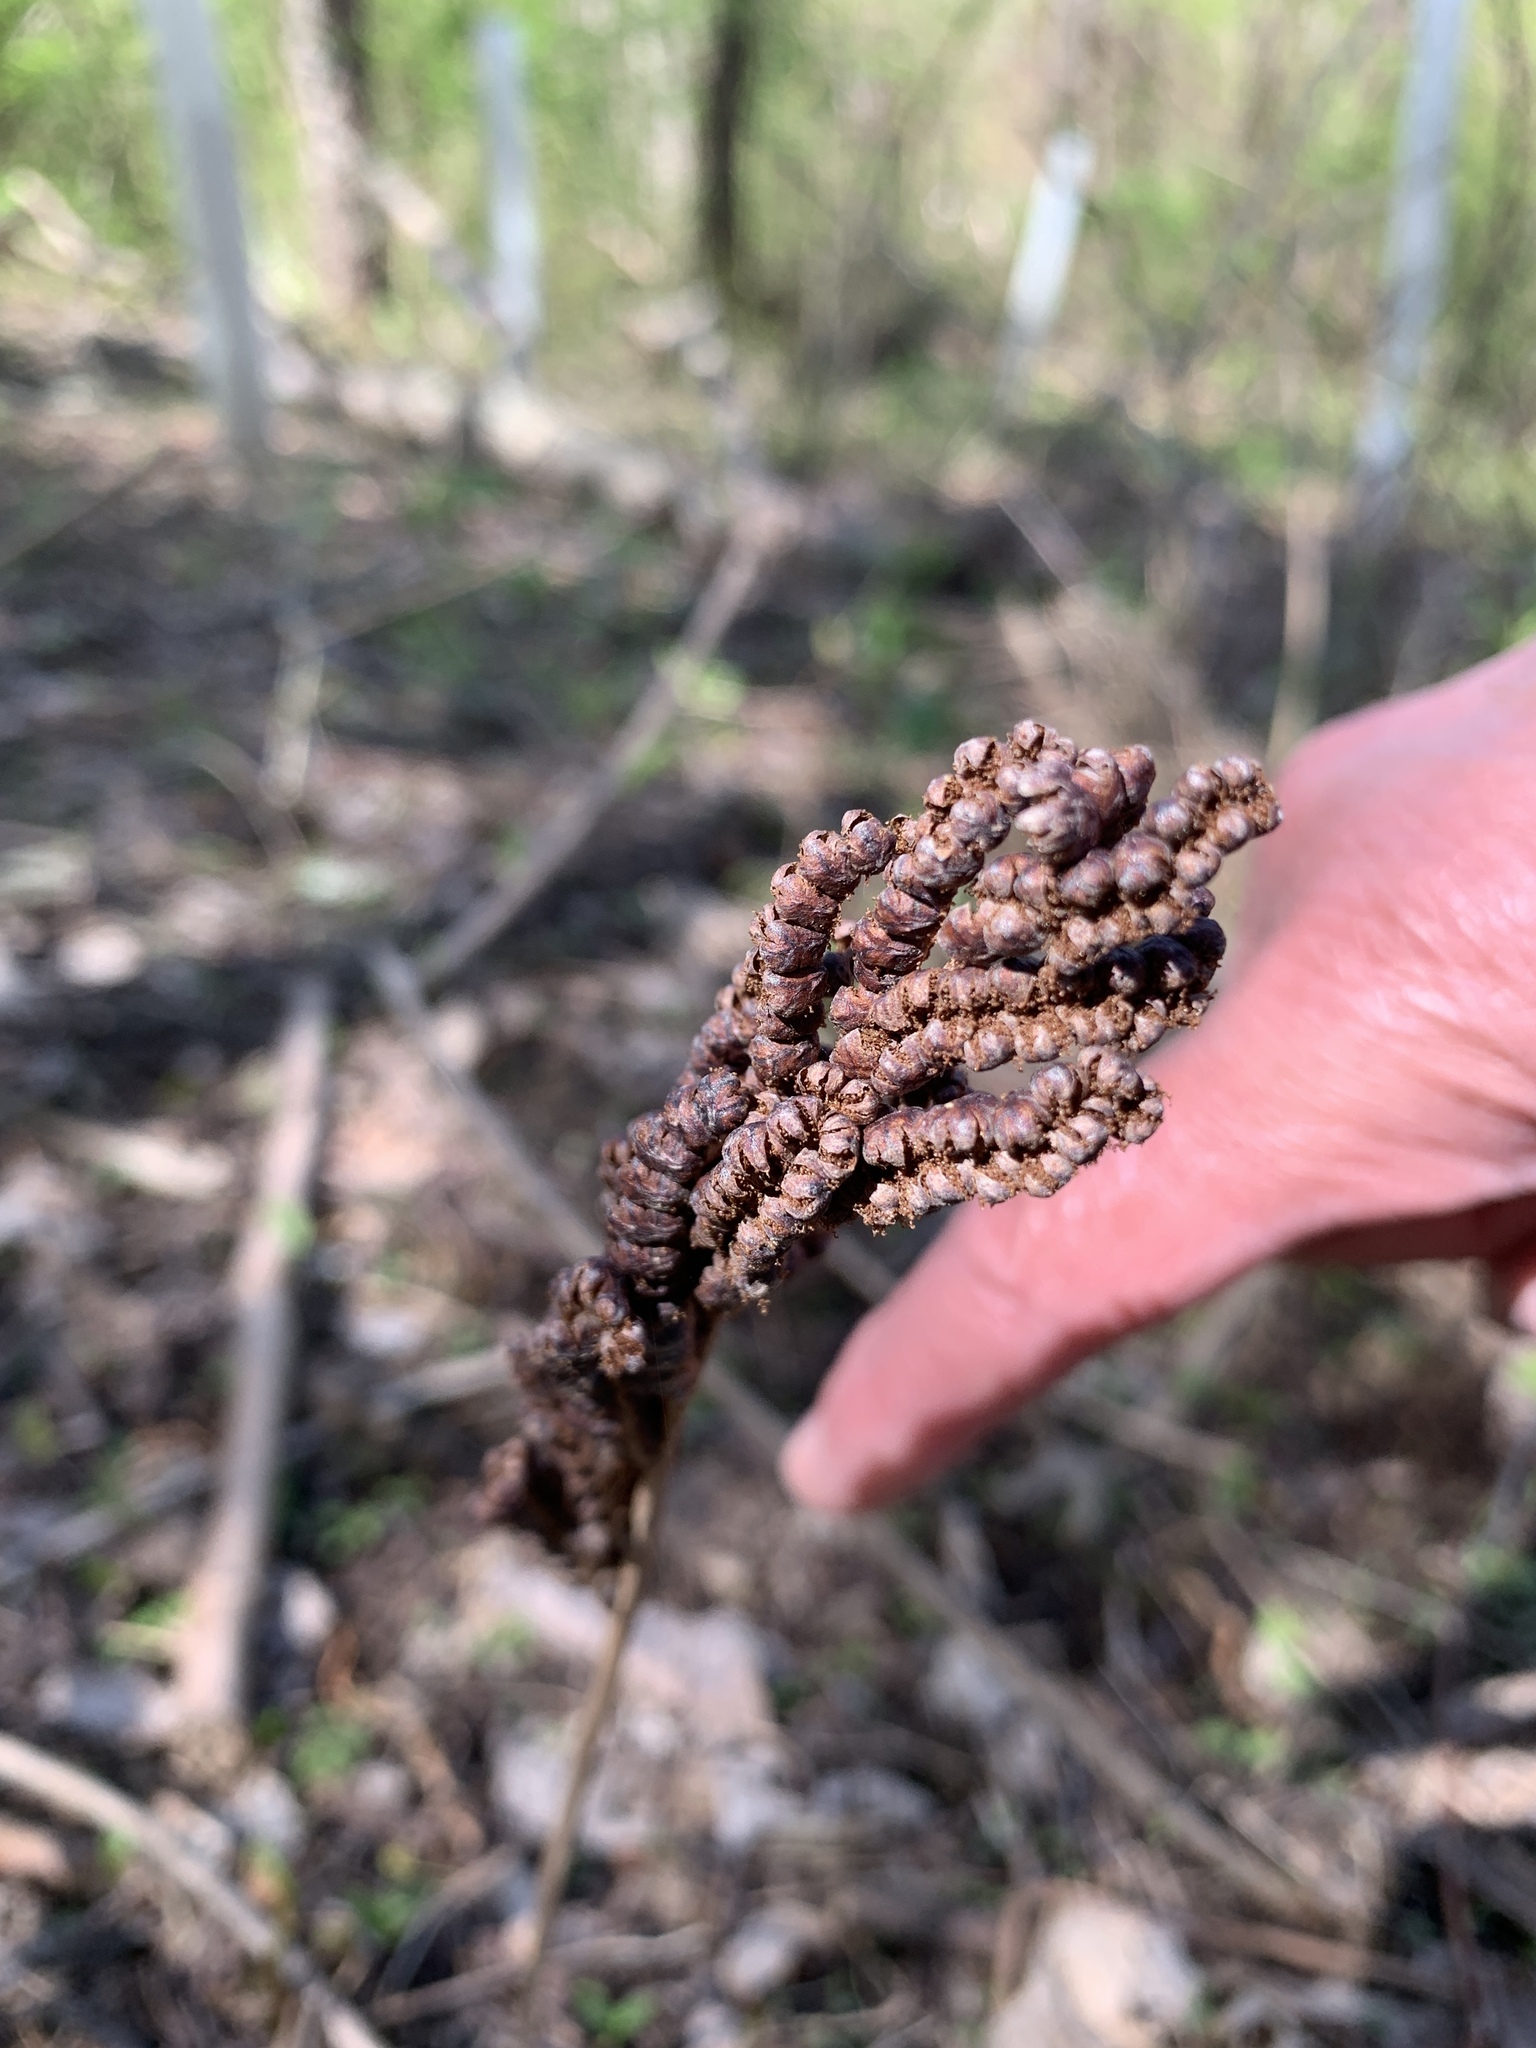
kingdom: Plantae
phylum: Tracheophyta
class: Polypodiopsida
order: Polypodiales
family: Onocleaceae
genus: Onoclea
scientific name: Onoclea sensibilis
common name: Sensitive fern
